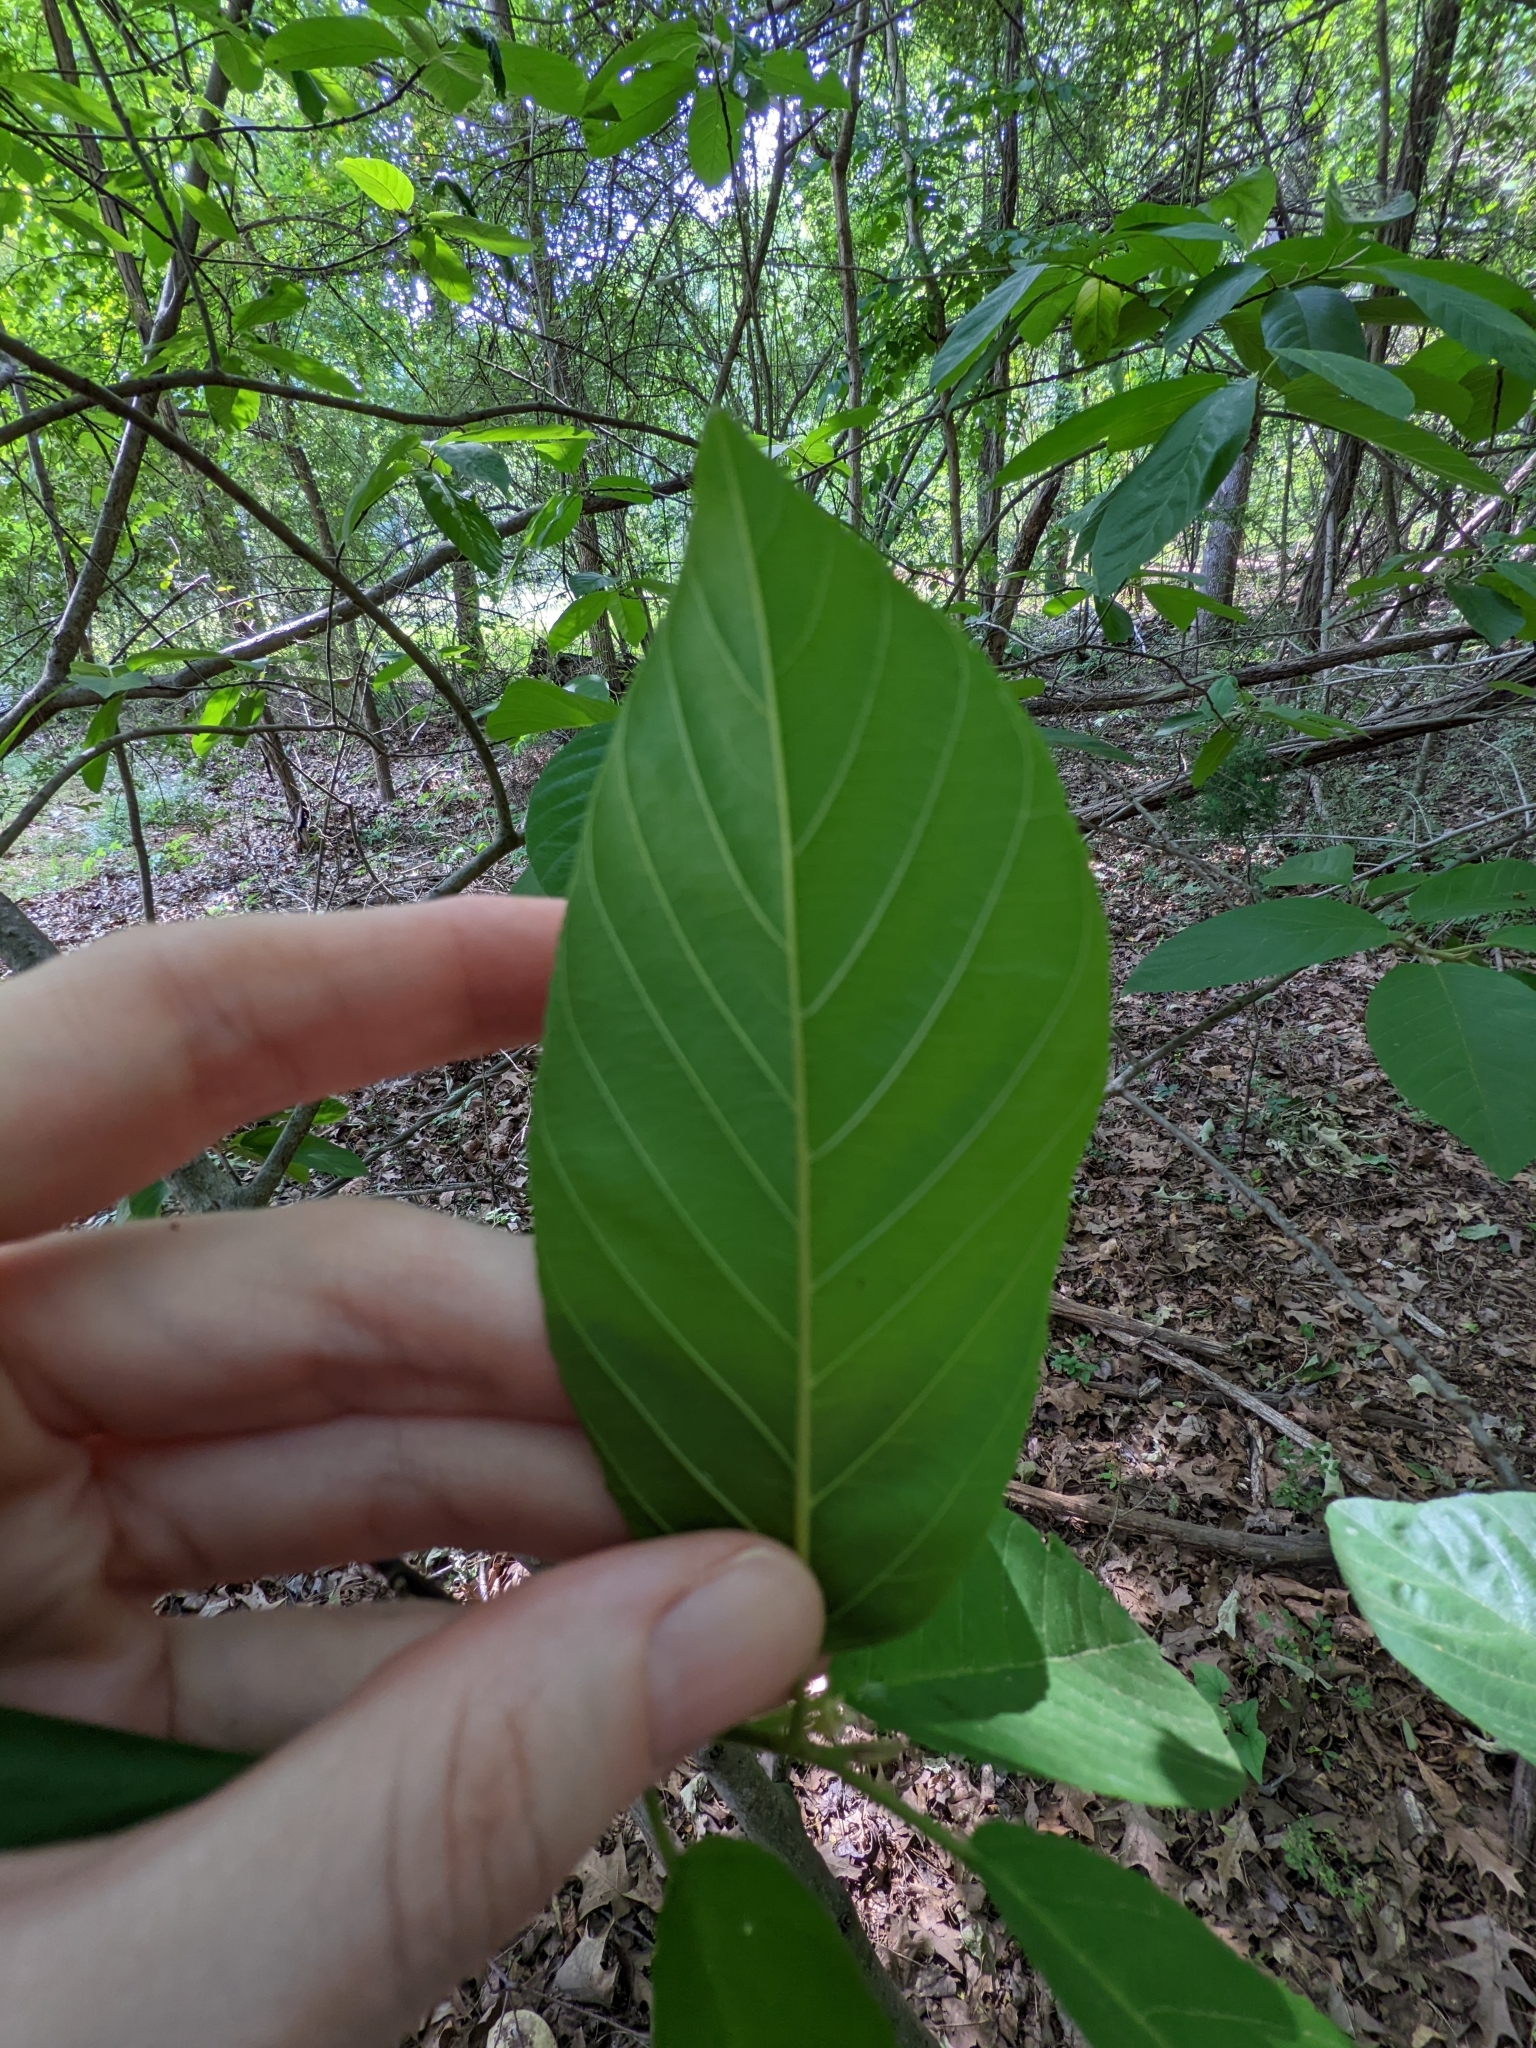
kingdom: Plantae
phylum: Tracheophyta
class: Magnoliopsida
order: Rosales
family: Rhamnaceae
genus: Frangula
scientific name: Frangula caroliniana
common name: Carolina buckthorn
